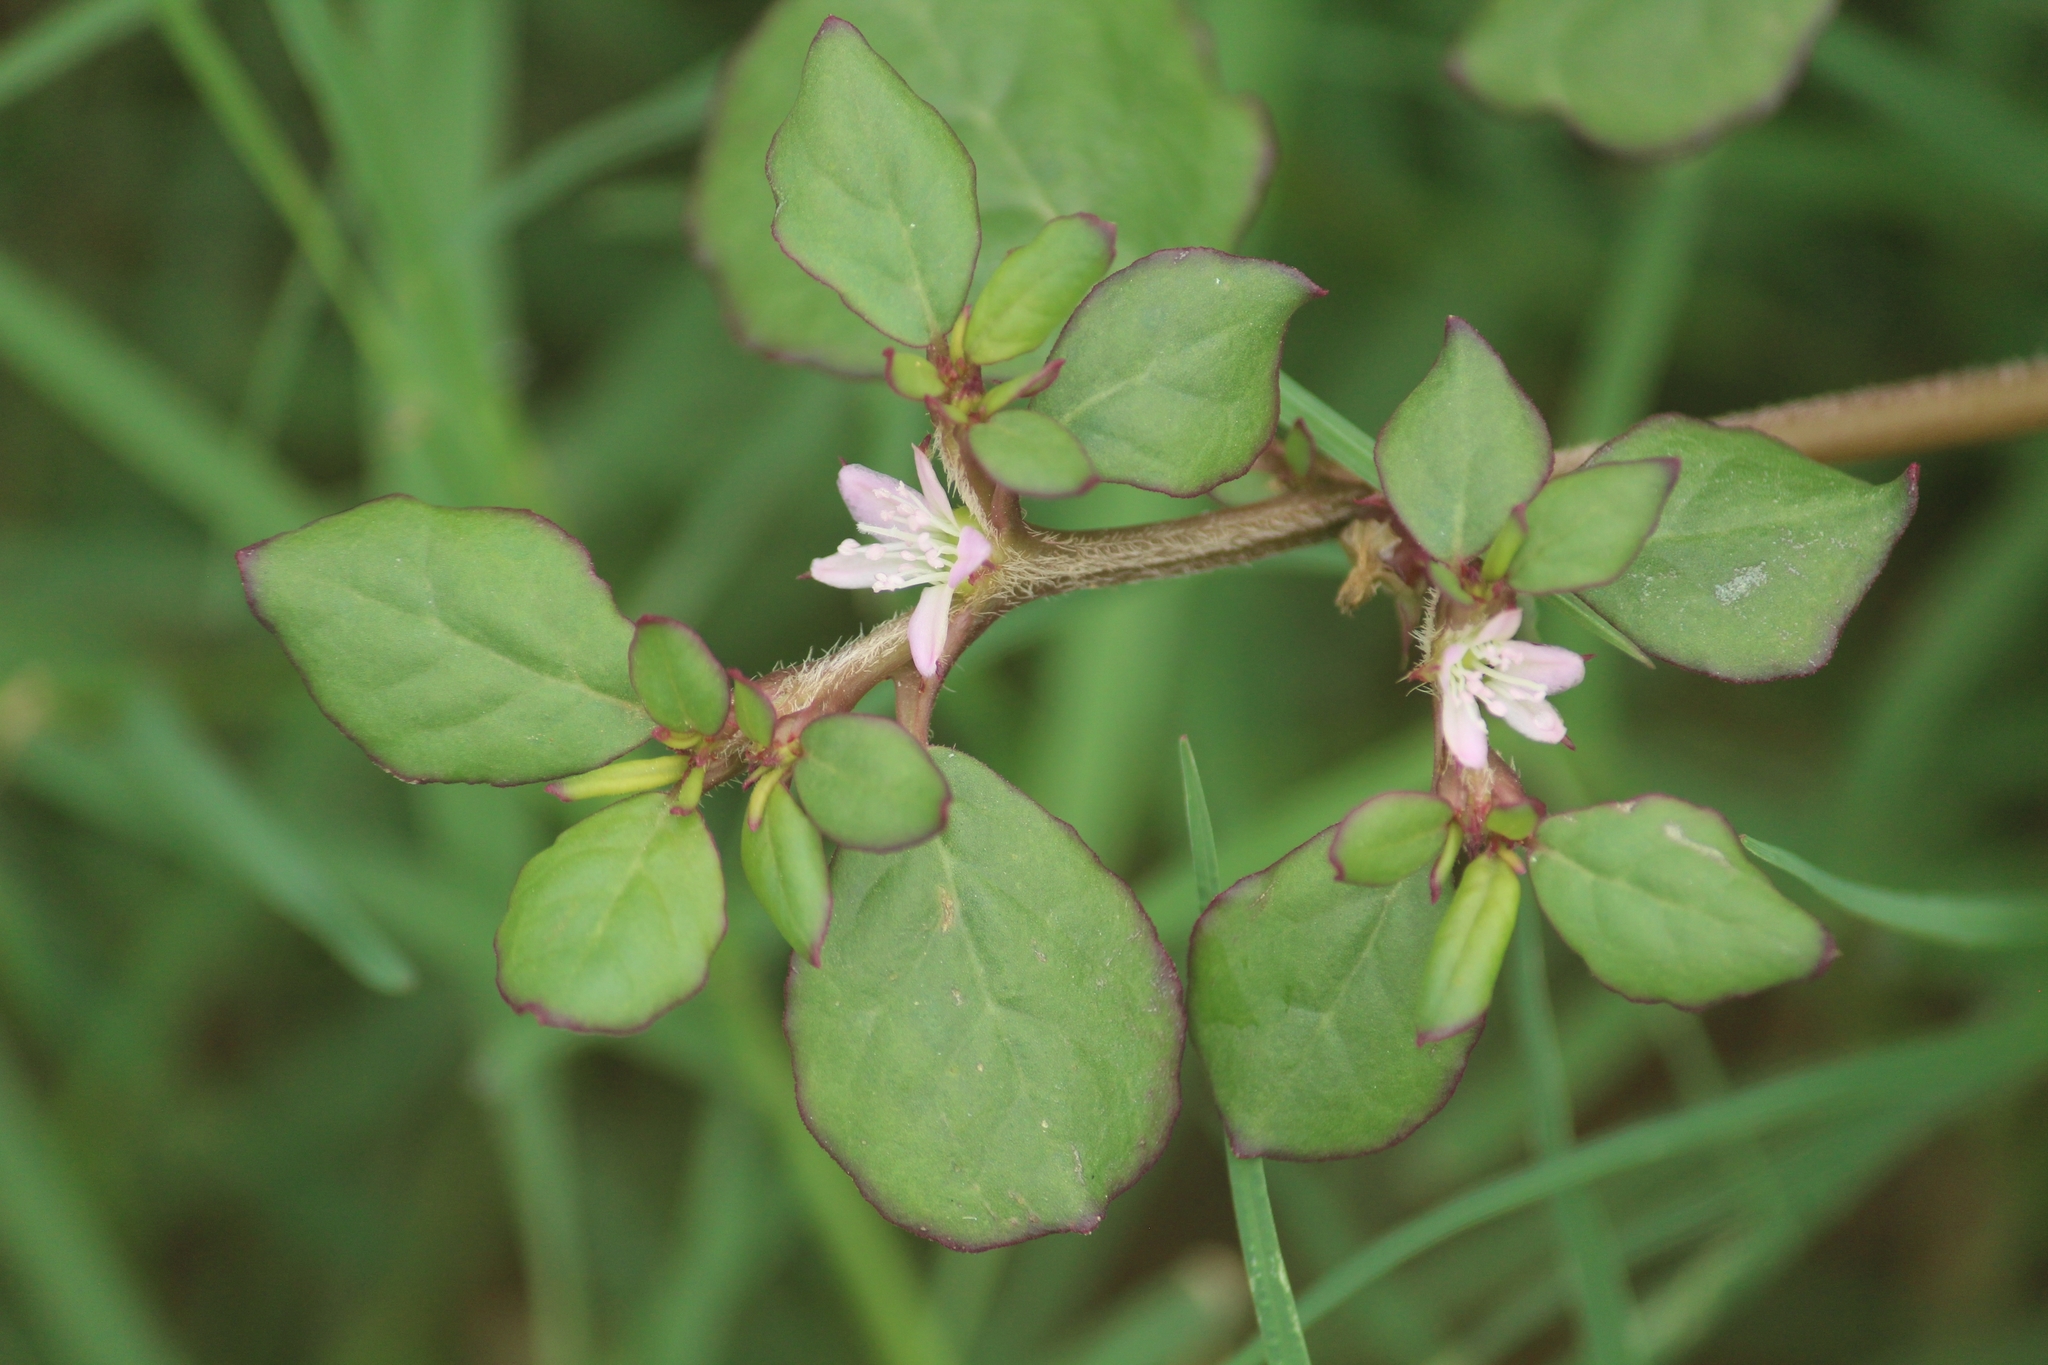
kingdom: Plantae
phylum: Tracheophyta
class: Magnoliopsida
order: Caryophyllales
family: Aizoaceae
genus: Trianthema
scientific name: Trianthema portulacastrum
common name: Desert horsepurslane
